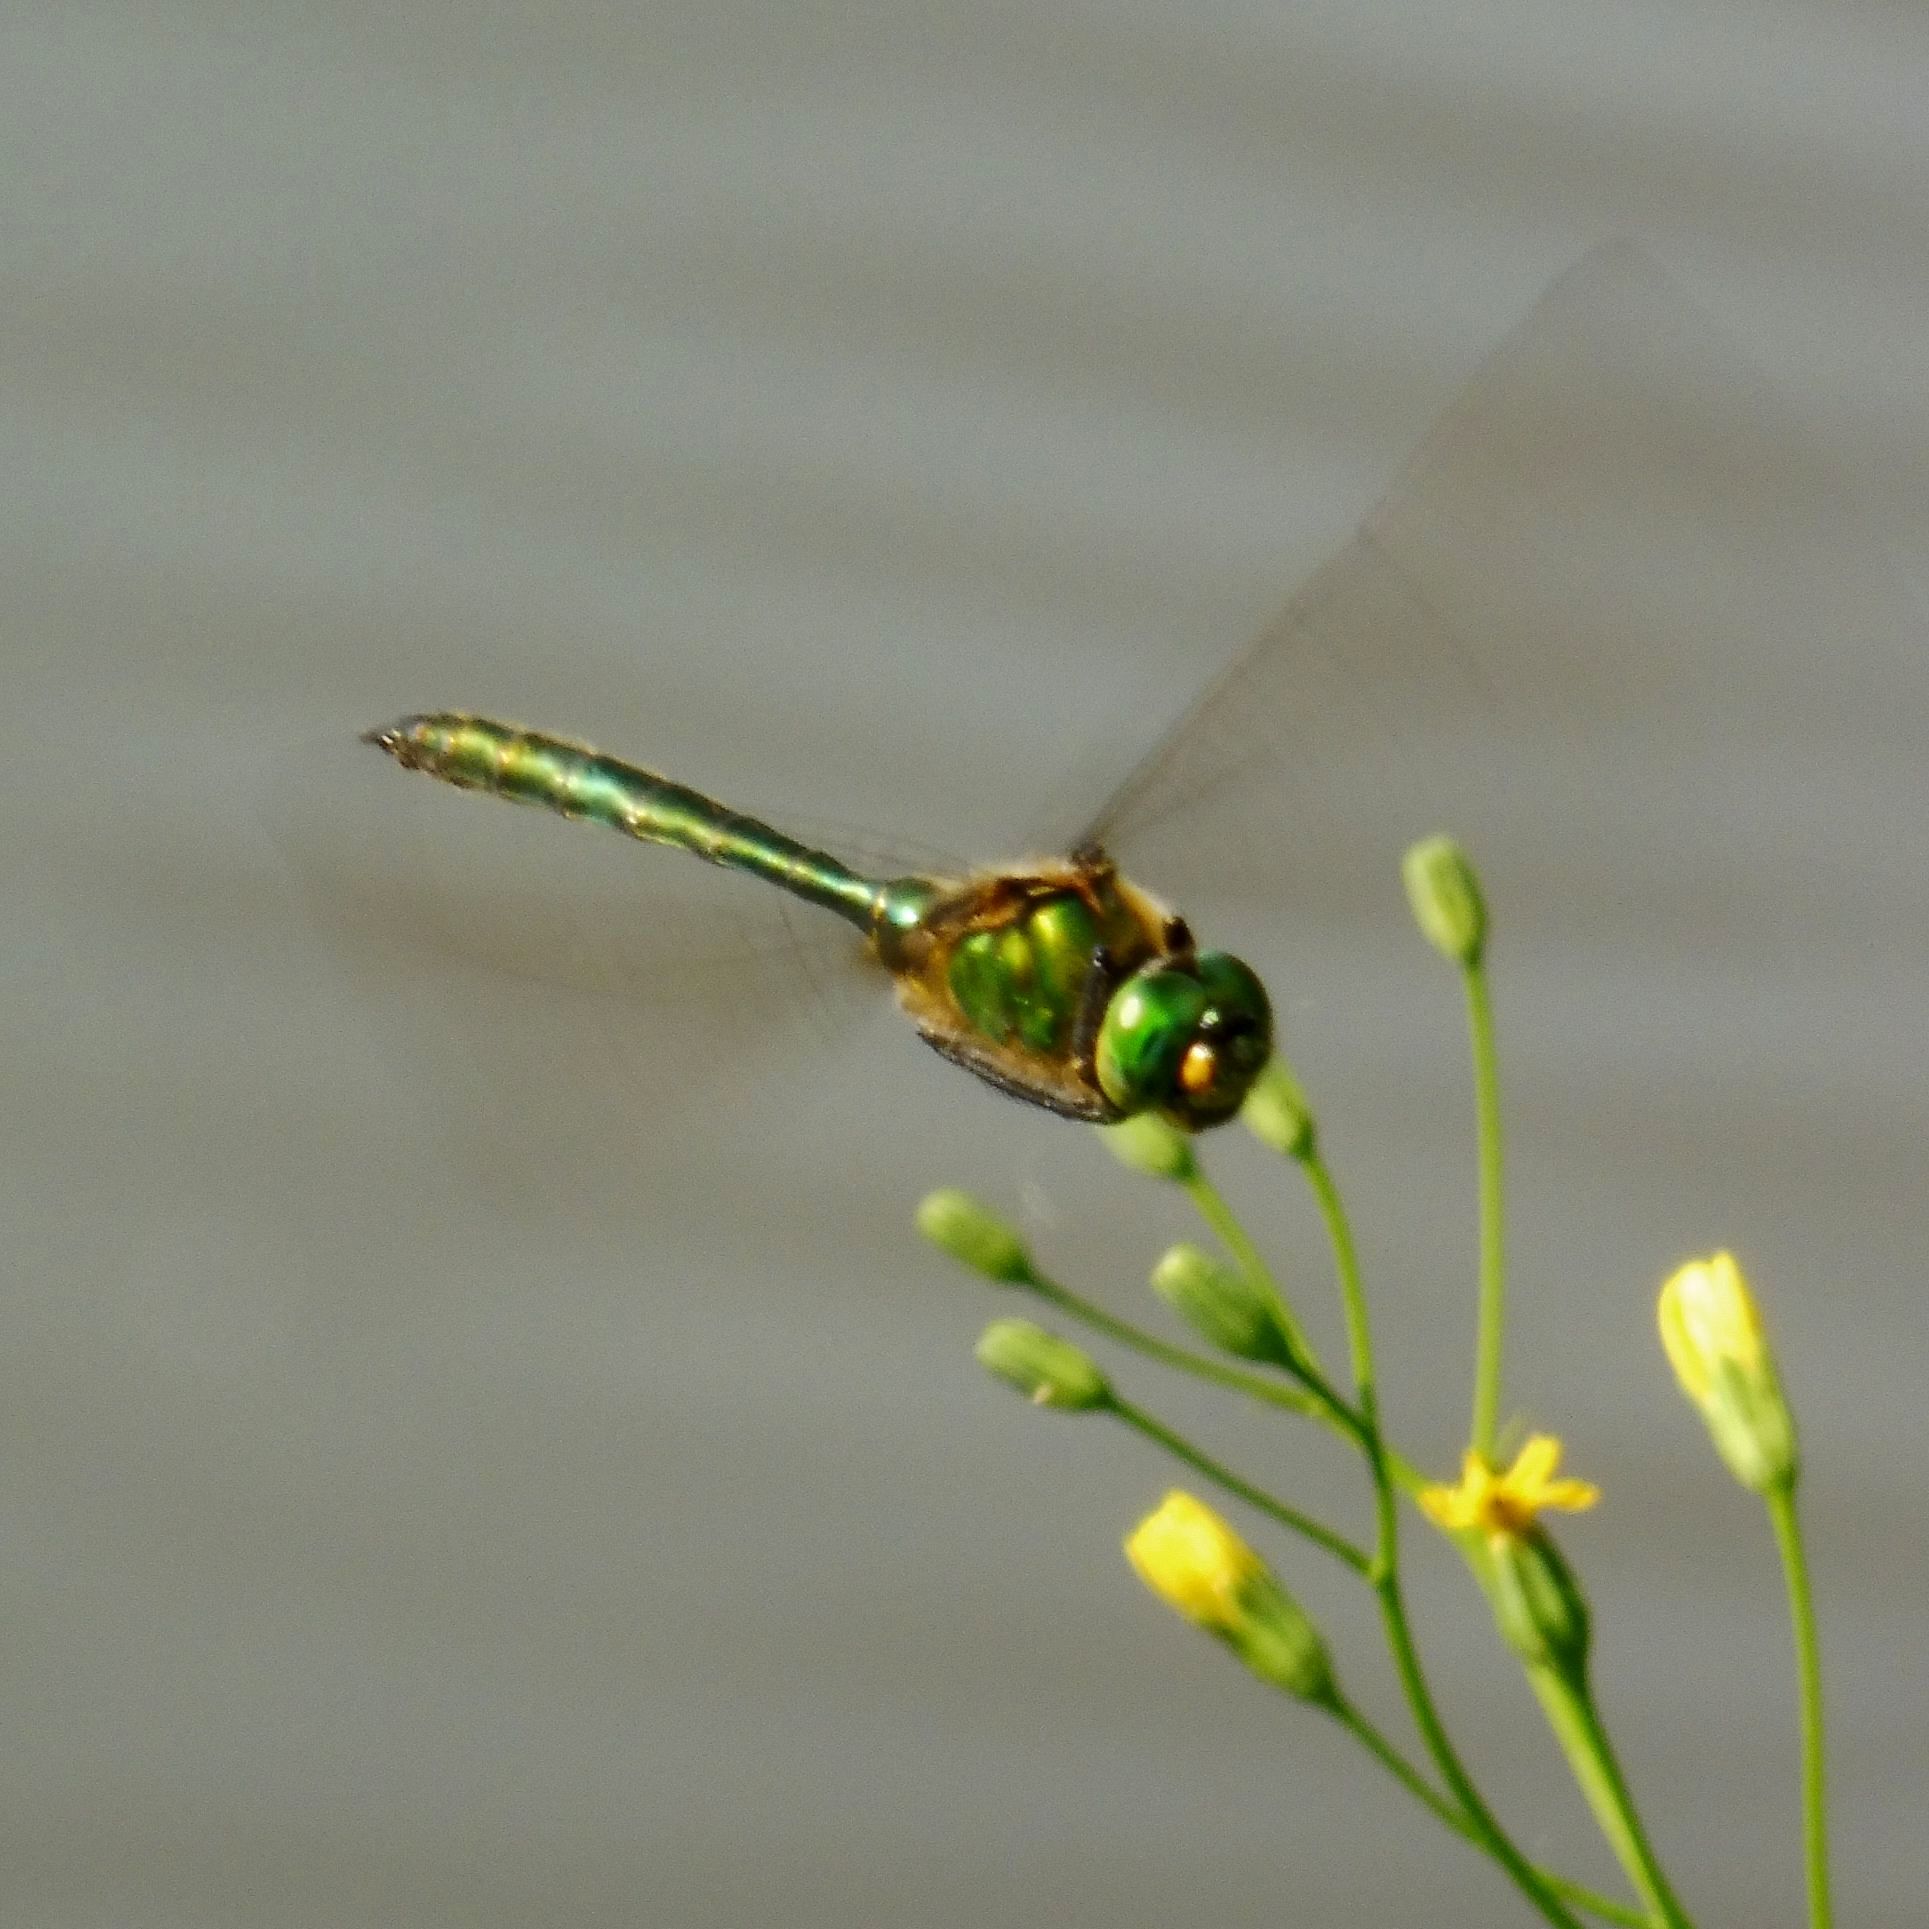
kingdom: Animalia
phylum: Arthropoda
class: Insecta
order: Odonata
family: Corduliidae
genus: Somatochlora
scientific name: Somatochlora metallica
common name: Brilliant emerald
